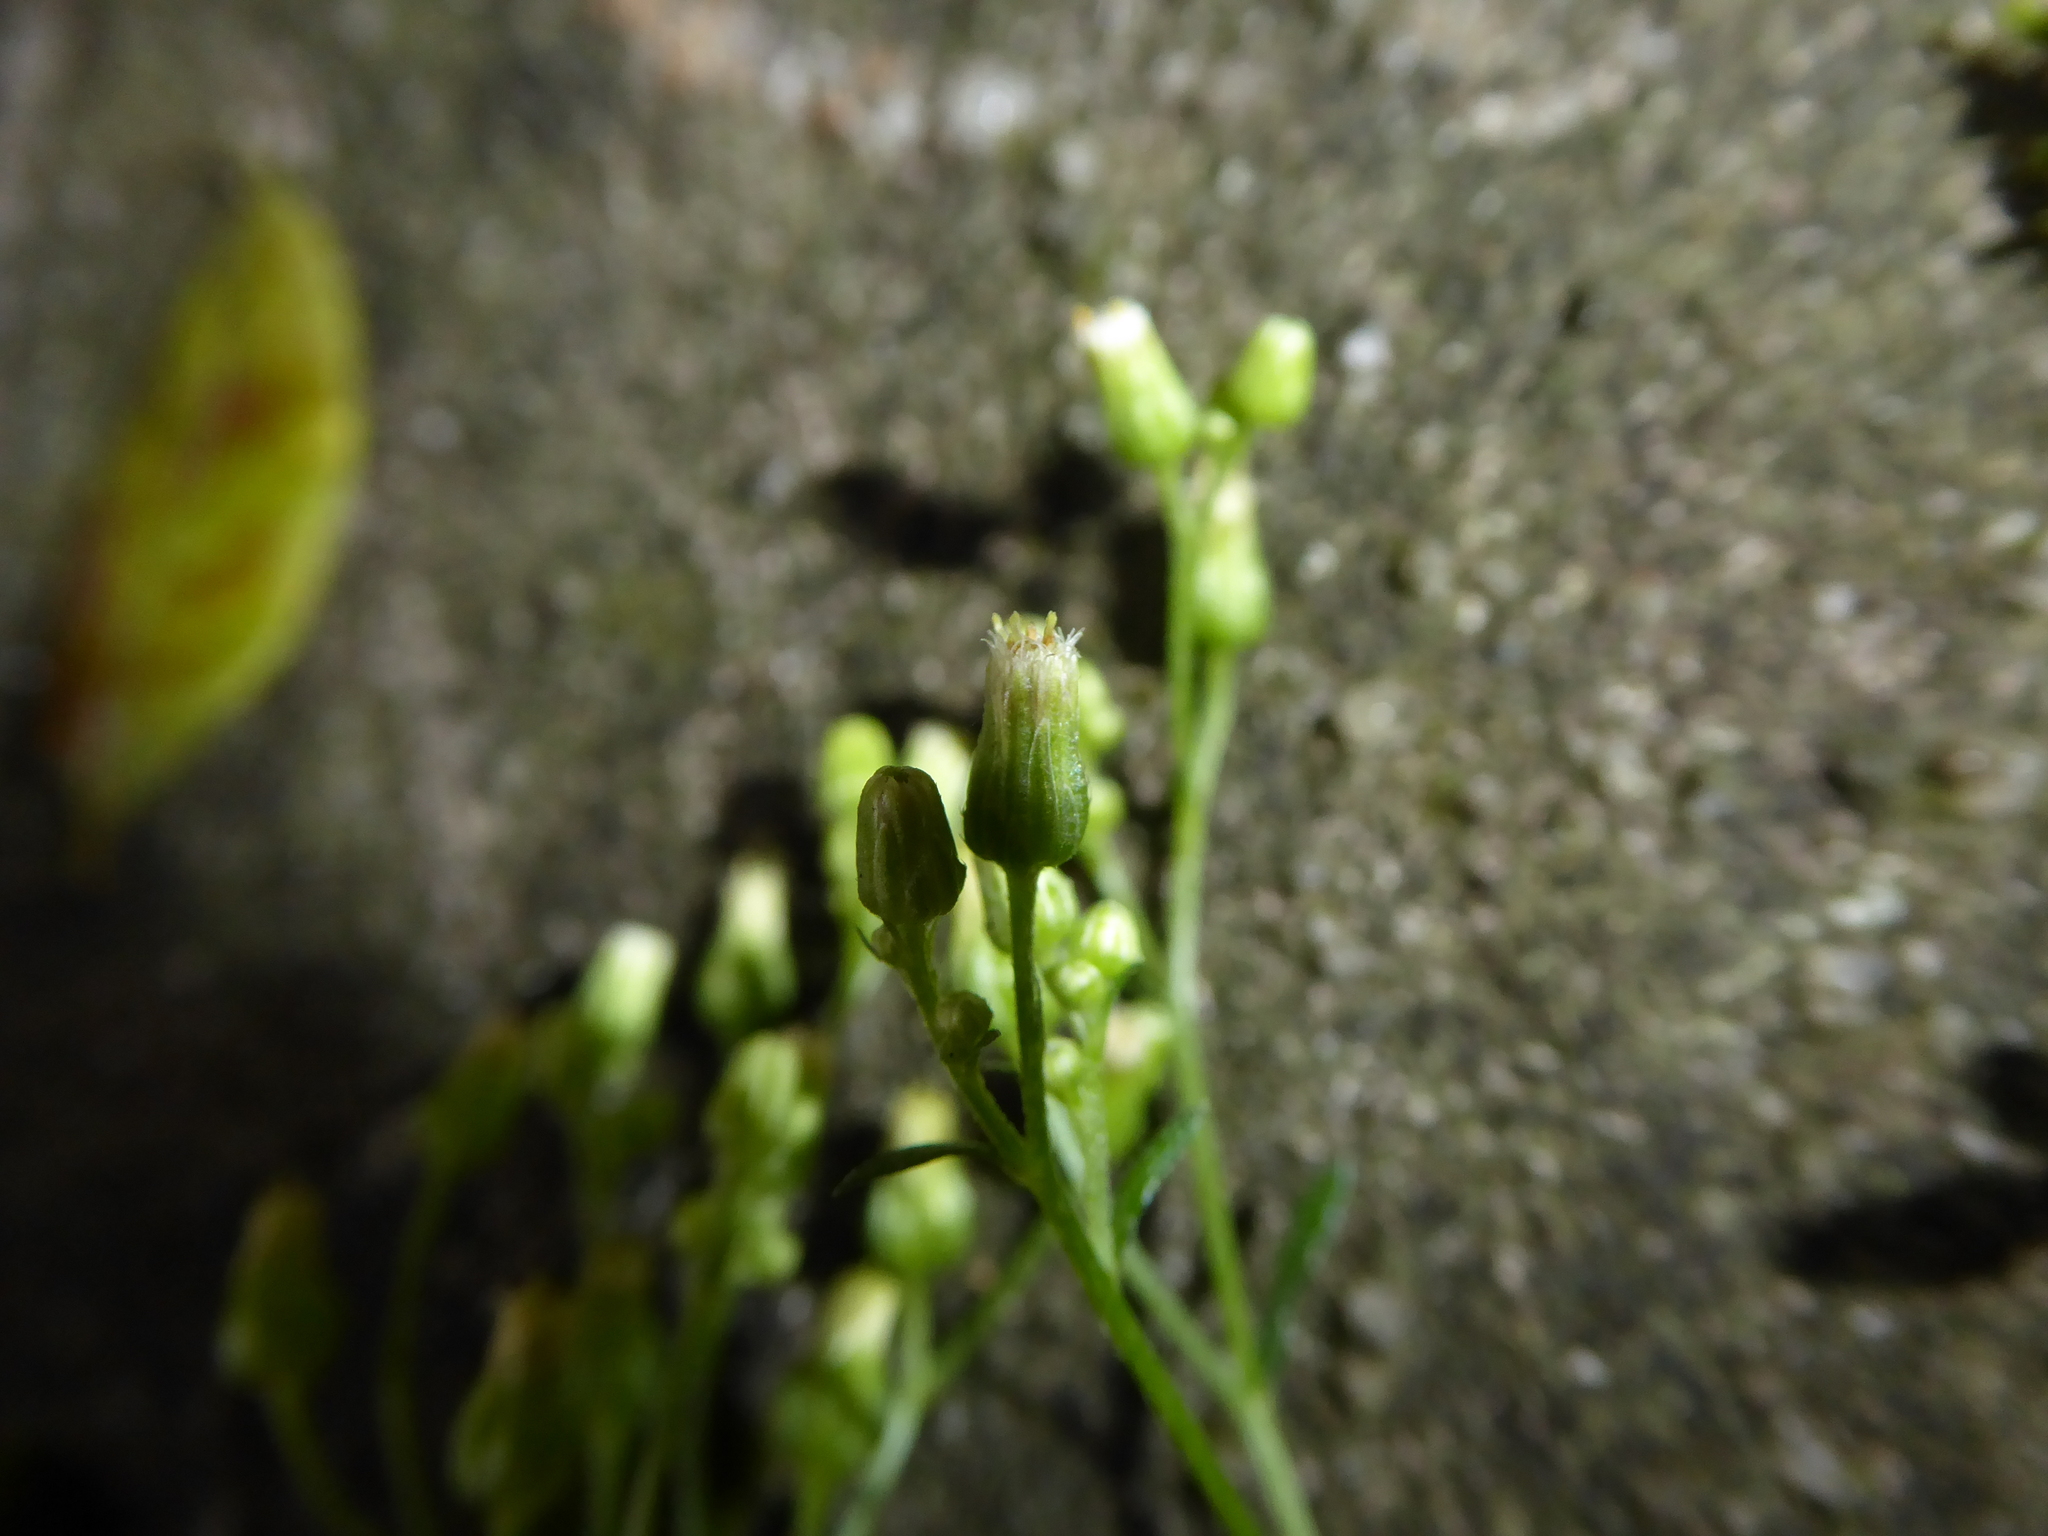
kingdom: Plantae
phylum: Tracheophyta
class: Magnoliopsida
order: Asterales
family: Asteraceae
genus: Erigeron
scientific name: Erigeron floribundus
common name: Bilbao fleabane
